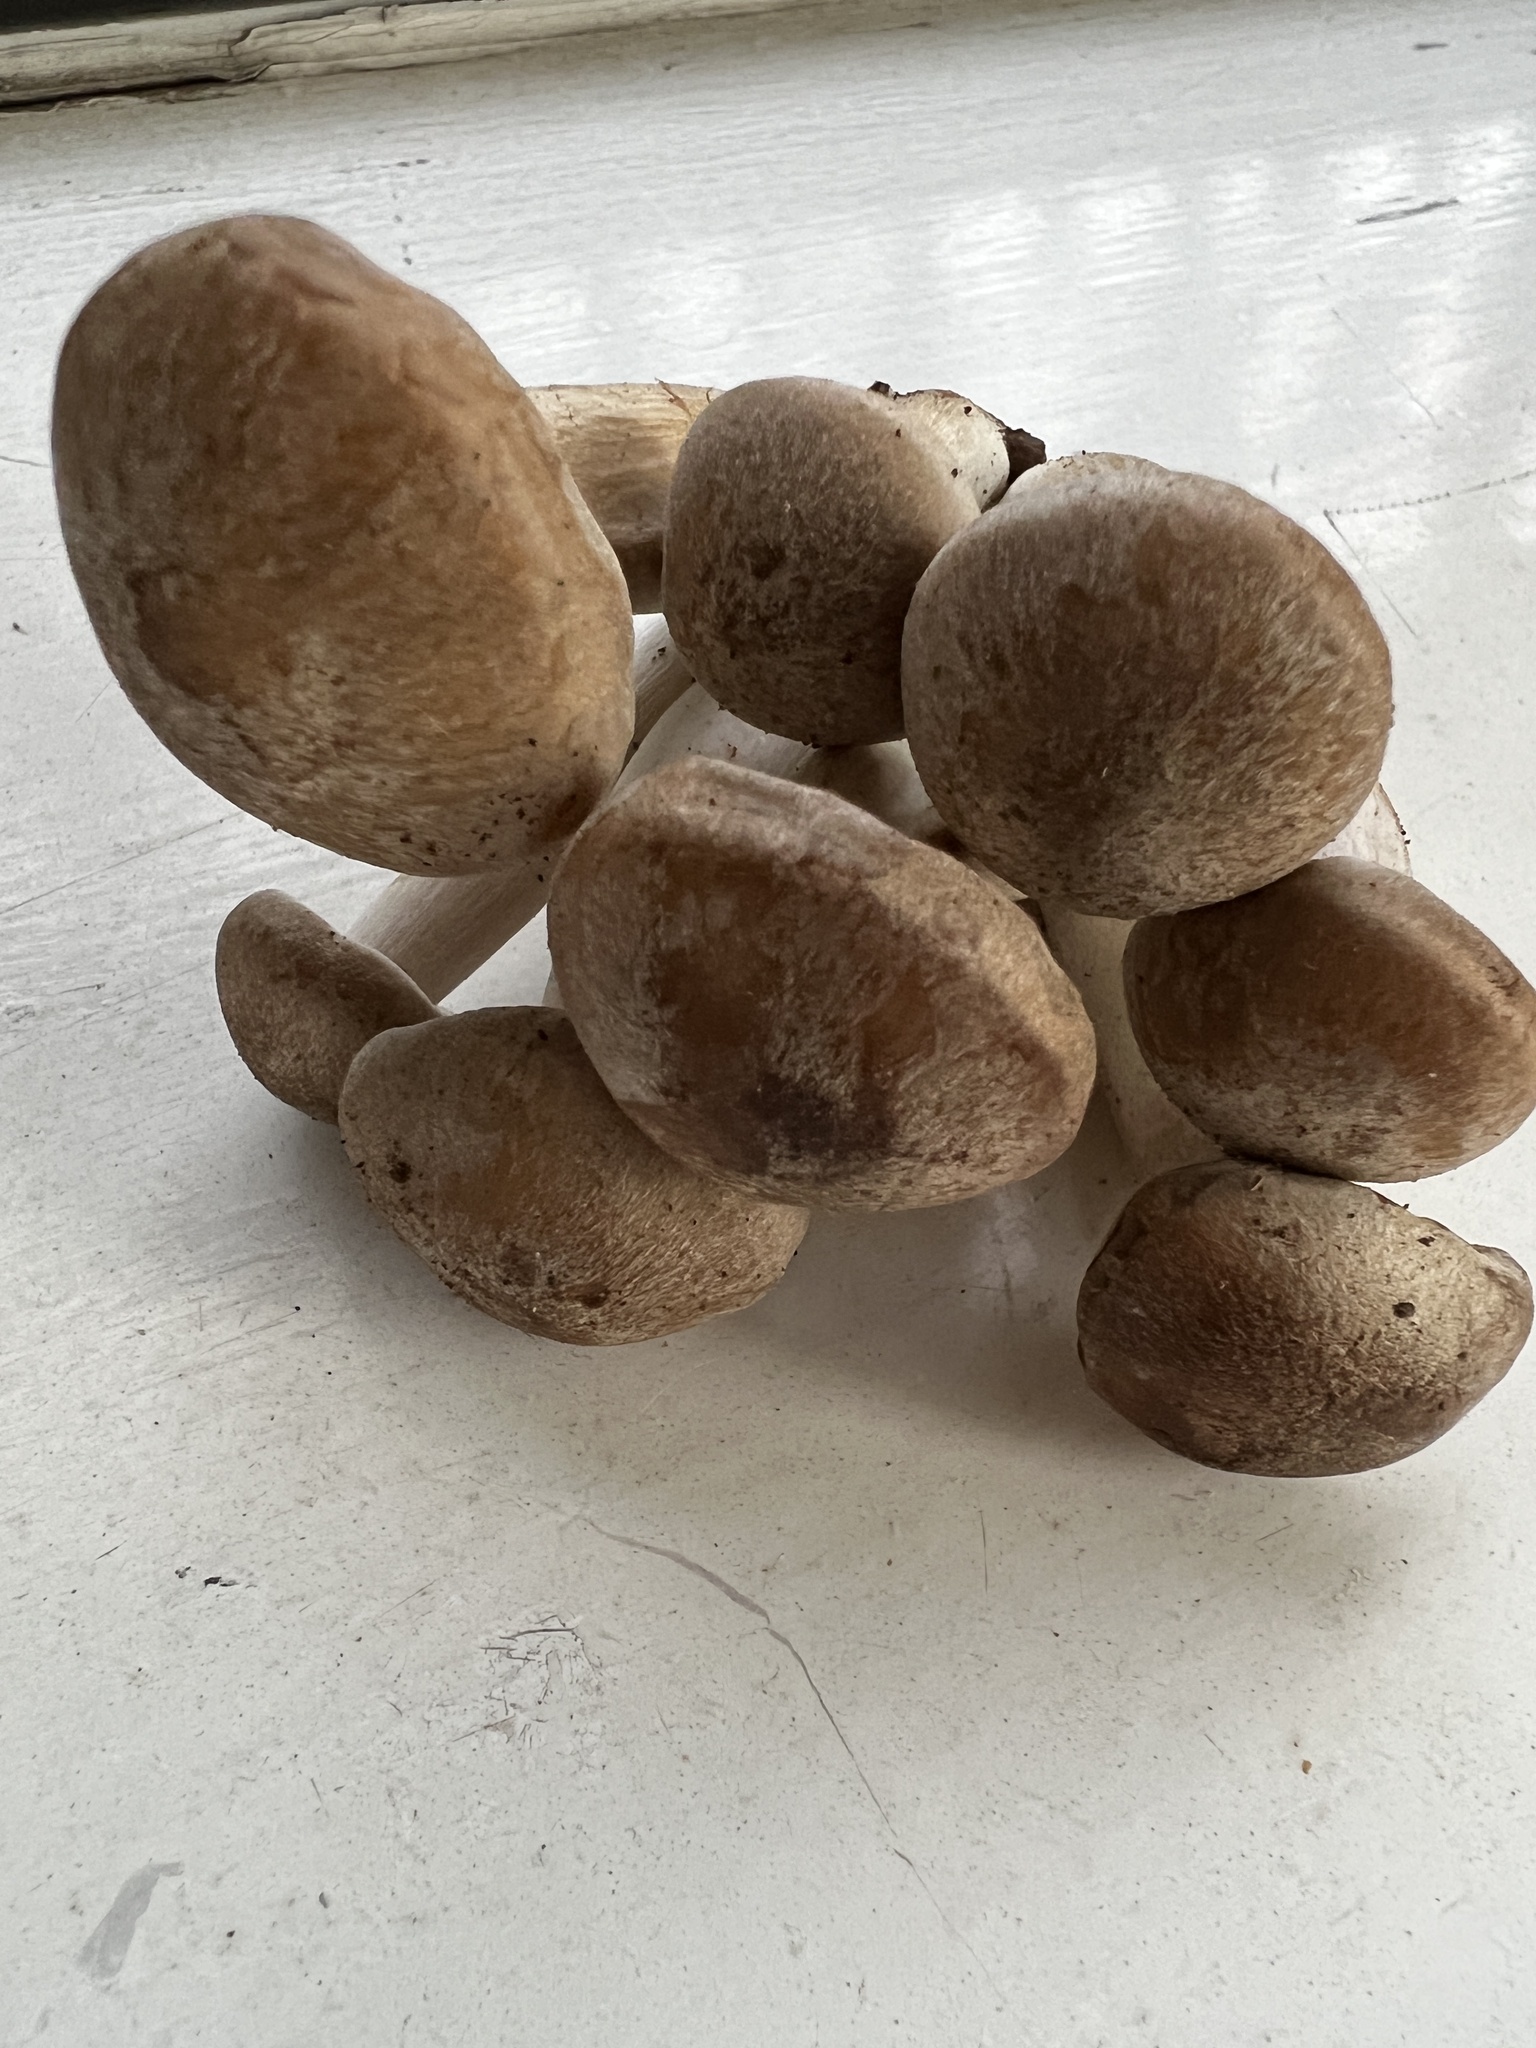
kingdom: Fungi
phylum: Basidiomycota
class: Agaricomycetes
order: Agaricales
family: Lyophyllaceae
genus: Lyophyllum
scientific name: Lyophyllum decastes
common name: Clustered domecap
